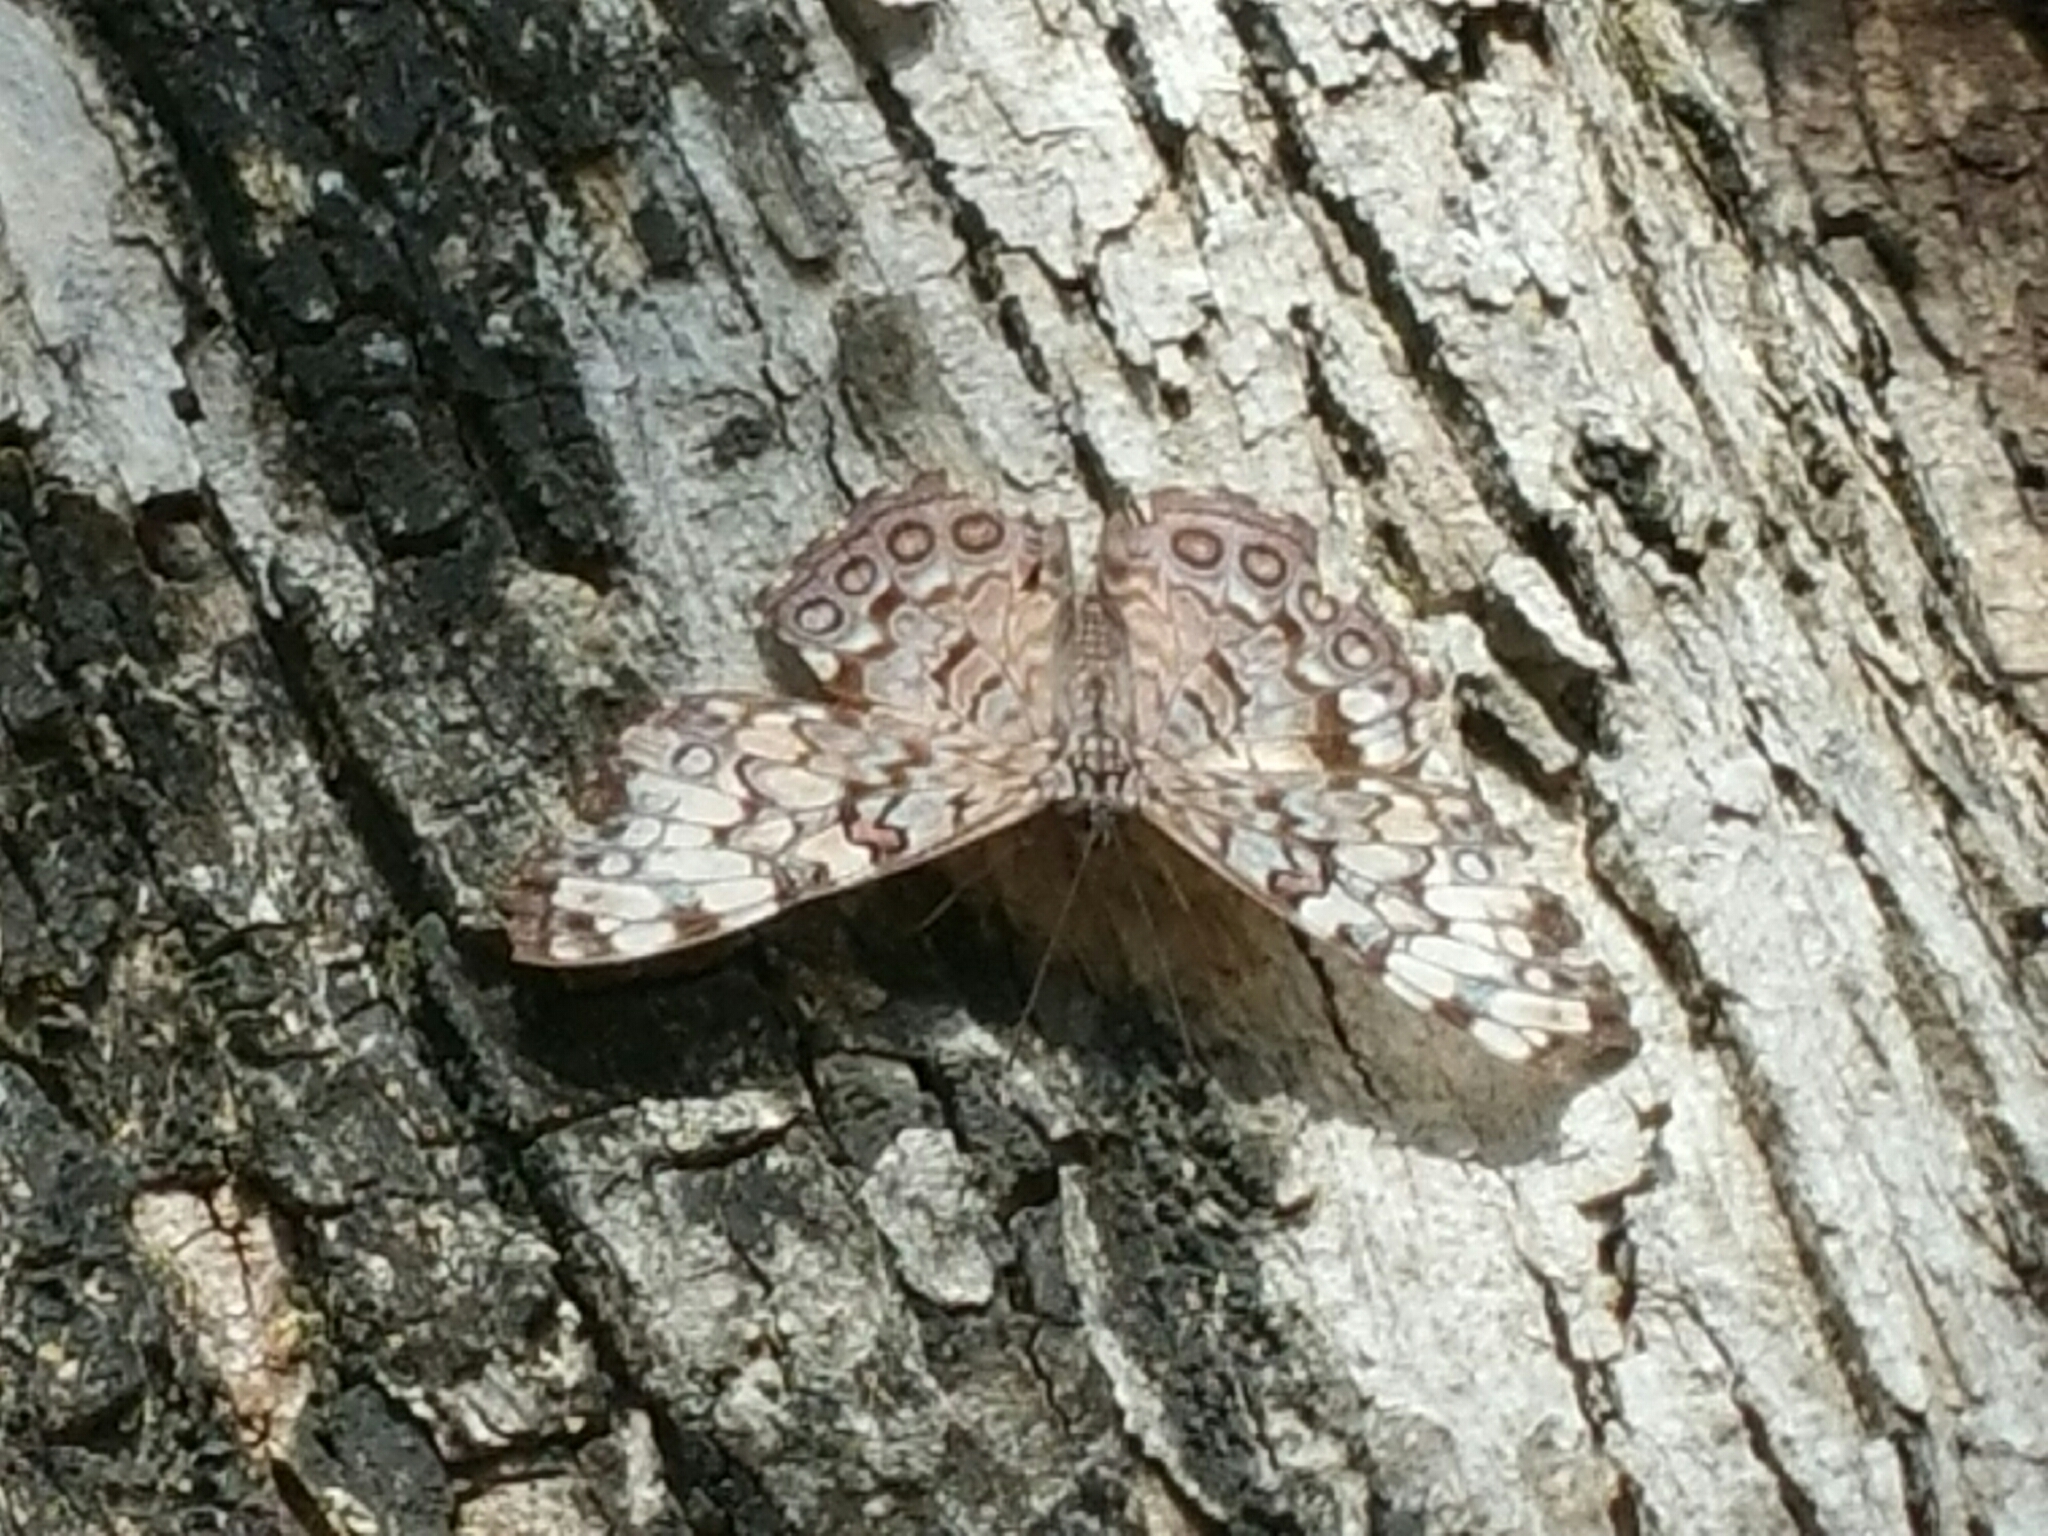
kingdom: Animalia
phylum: Arthropoda
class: Insecta
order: Lepidoptera
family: Nymphalidae
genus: Hamadryas
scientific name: Hamadryas guatemalena
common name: Guatemalan cracker
